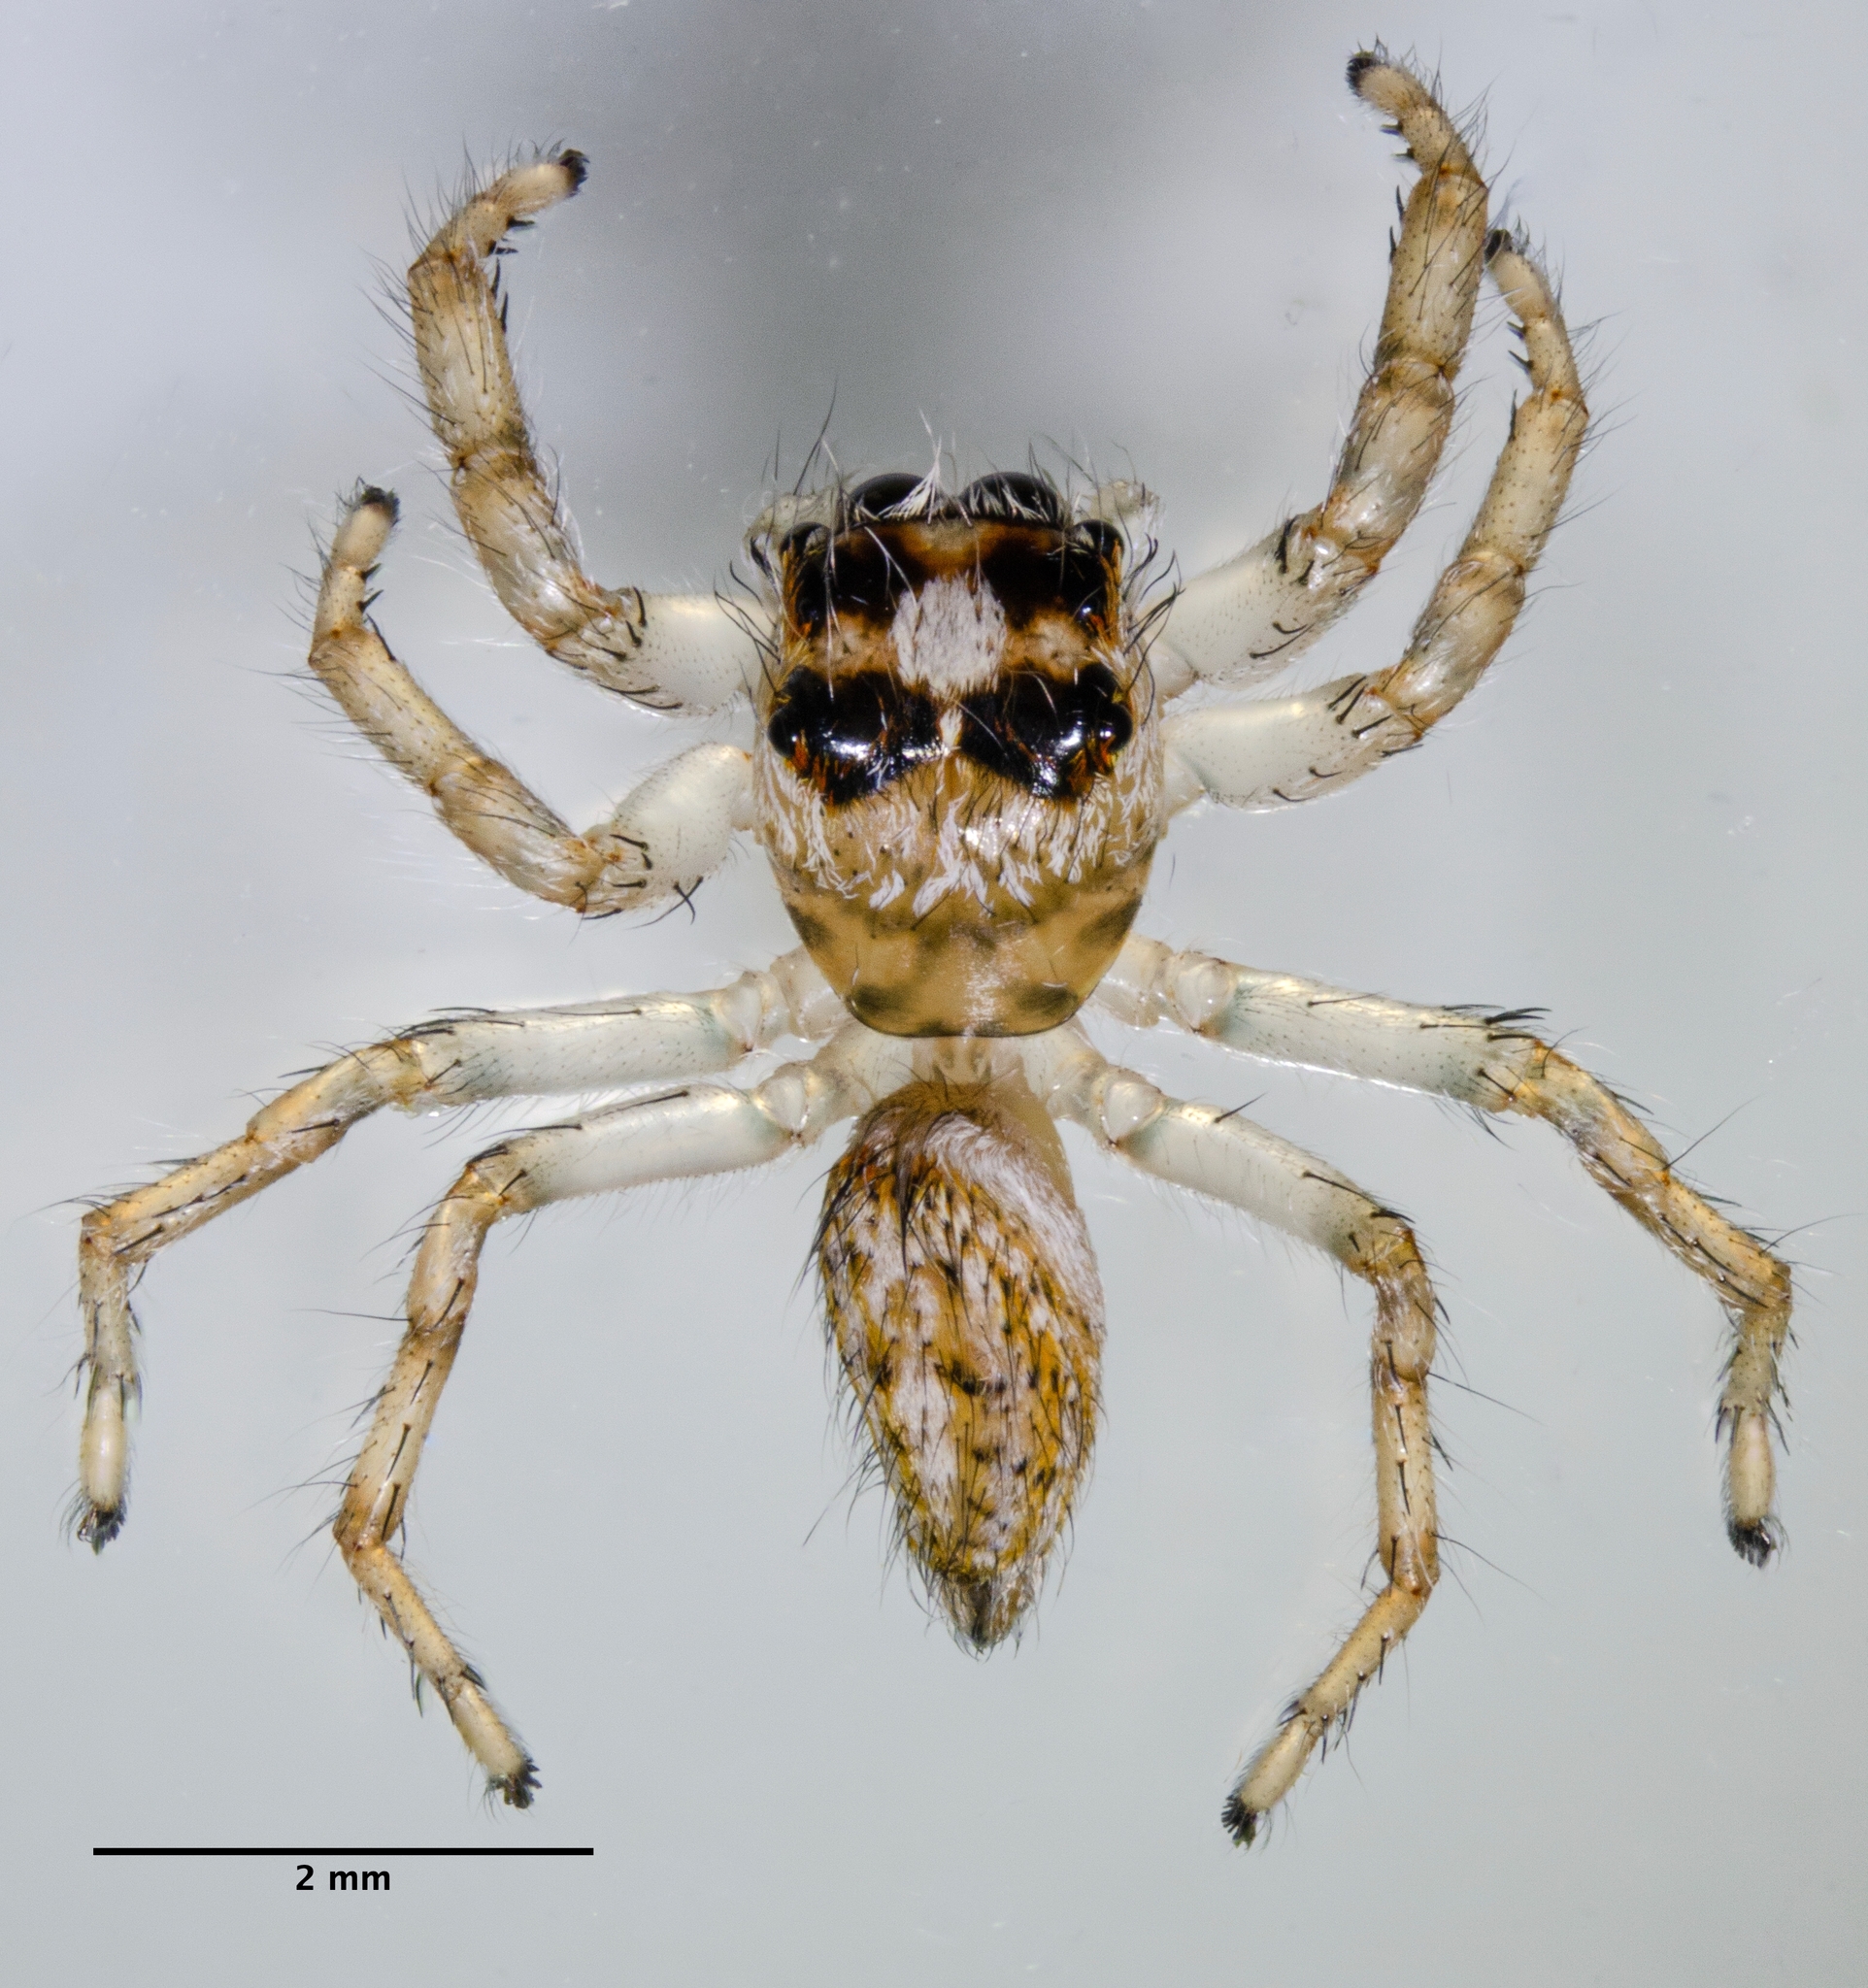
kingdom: Animalia
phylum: Arthropoda
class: Arachnida
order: Araneae
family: Salticidae
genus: Colonus
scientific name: Colonus hesperus
